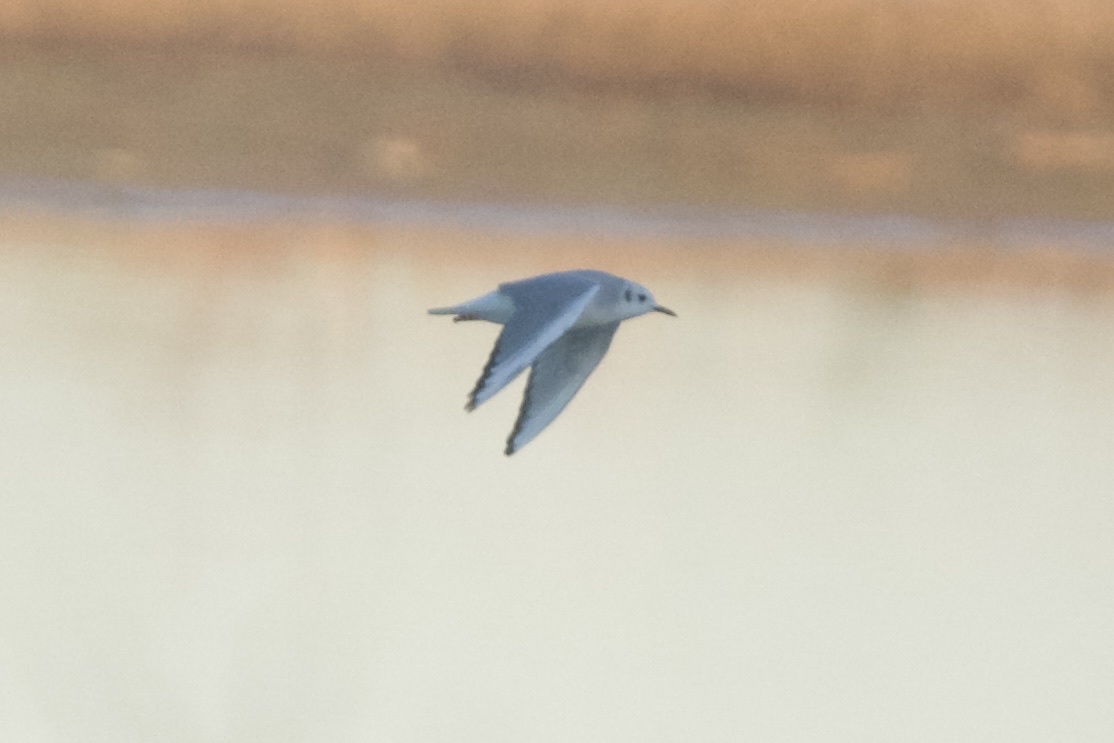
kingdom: Animalia
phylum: Chordata
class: Aves
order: Charadriiformes
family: Laridae
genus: Chroicocephalus
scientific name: Chroicocephalus philadelphia
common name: Bonaparte's gull
